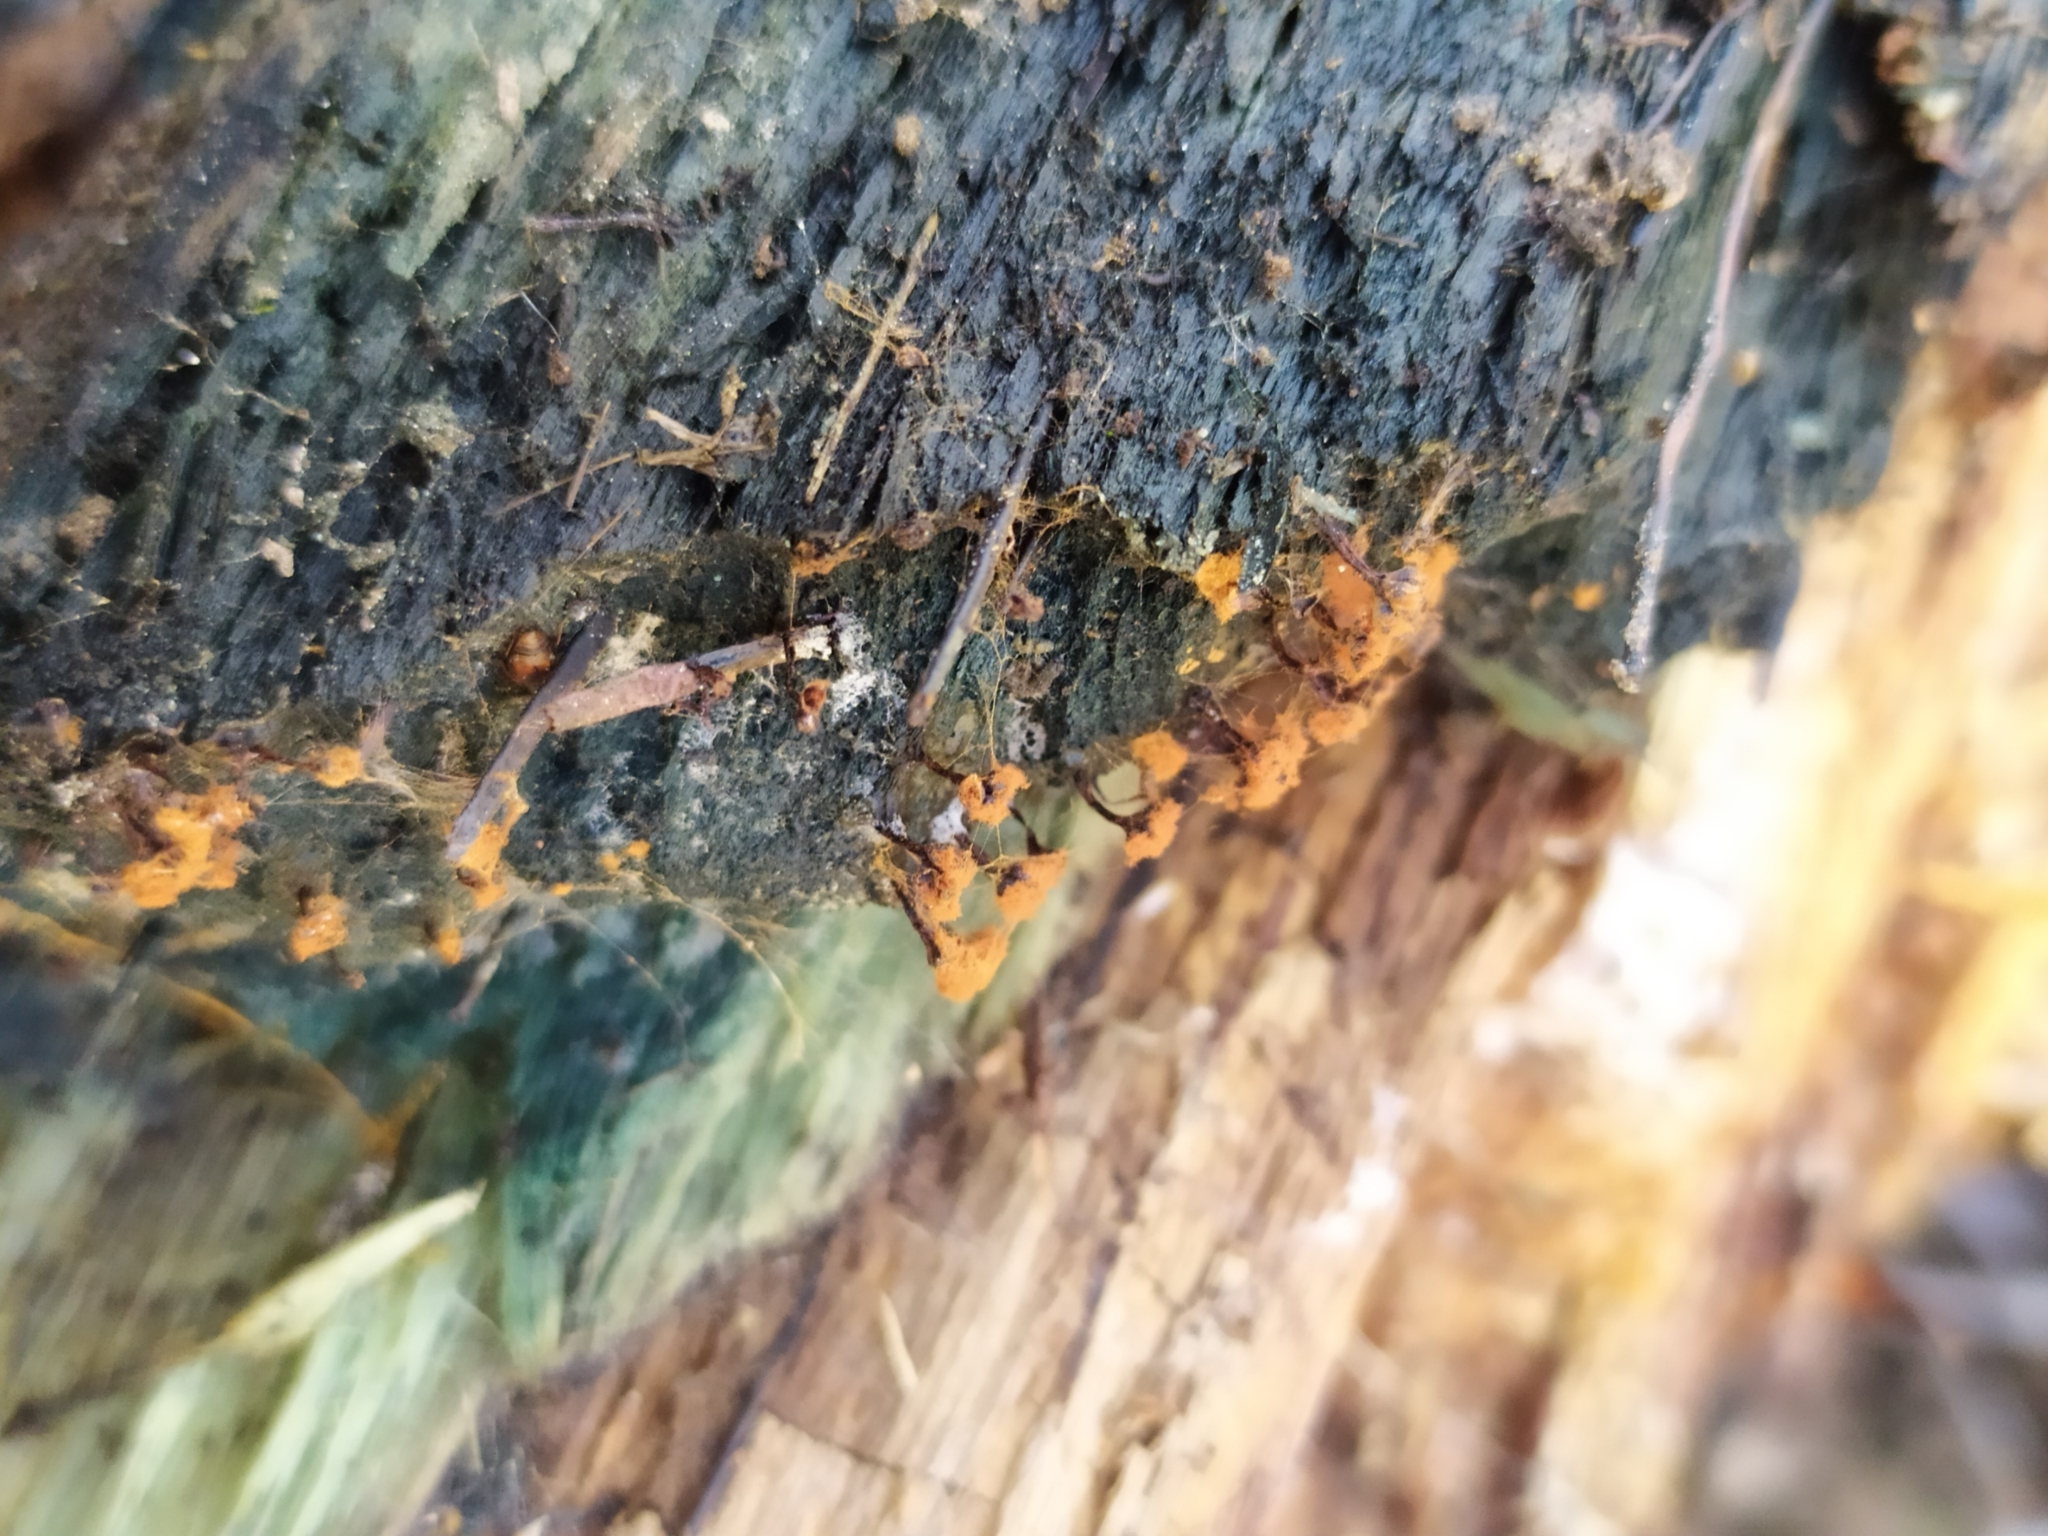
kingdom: Protozoa
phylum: Mycetozoa
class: Myxomycetes
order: Trichiales
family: Trichiaceae
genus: Metatrichia
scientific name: Metatrichia vesparia
